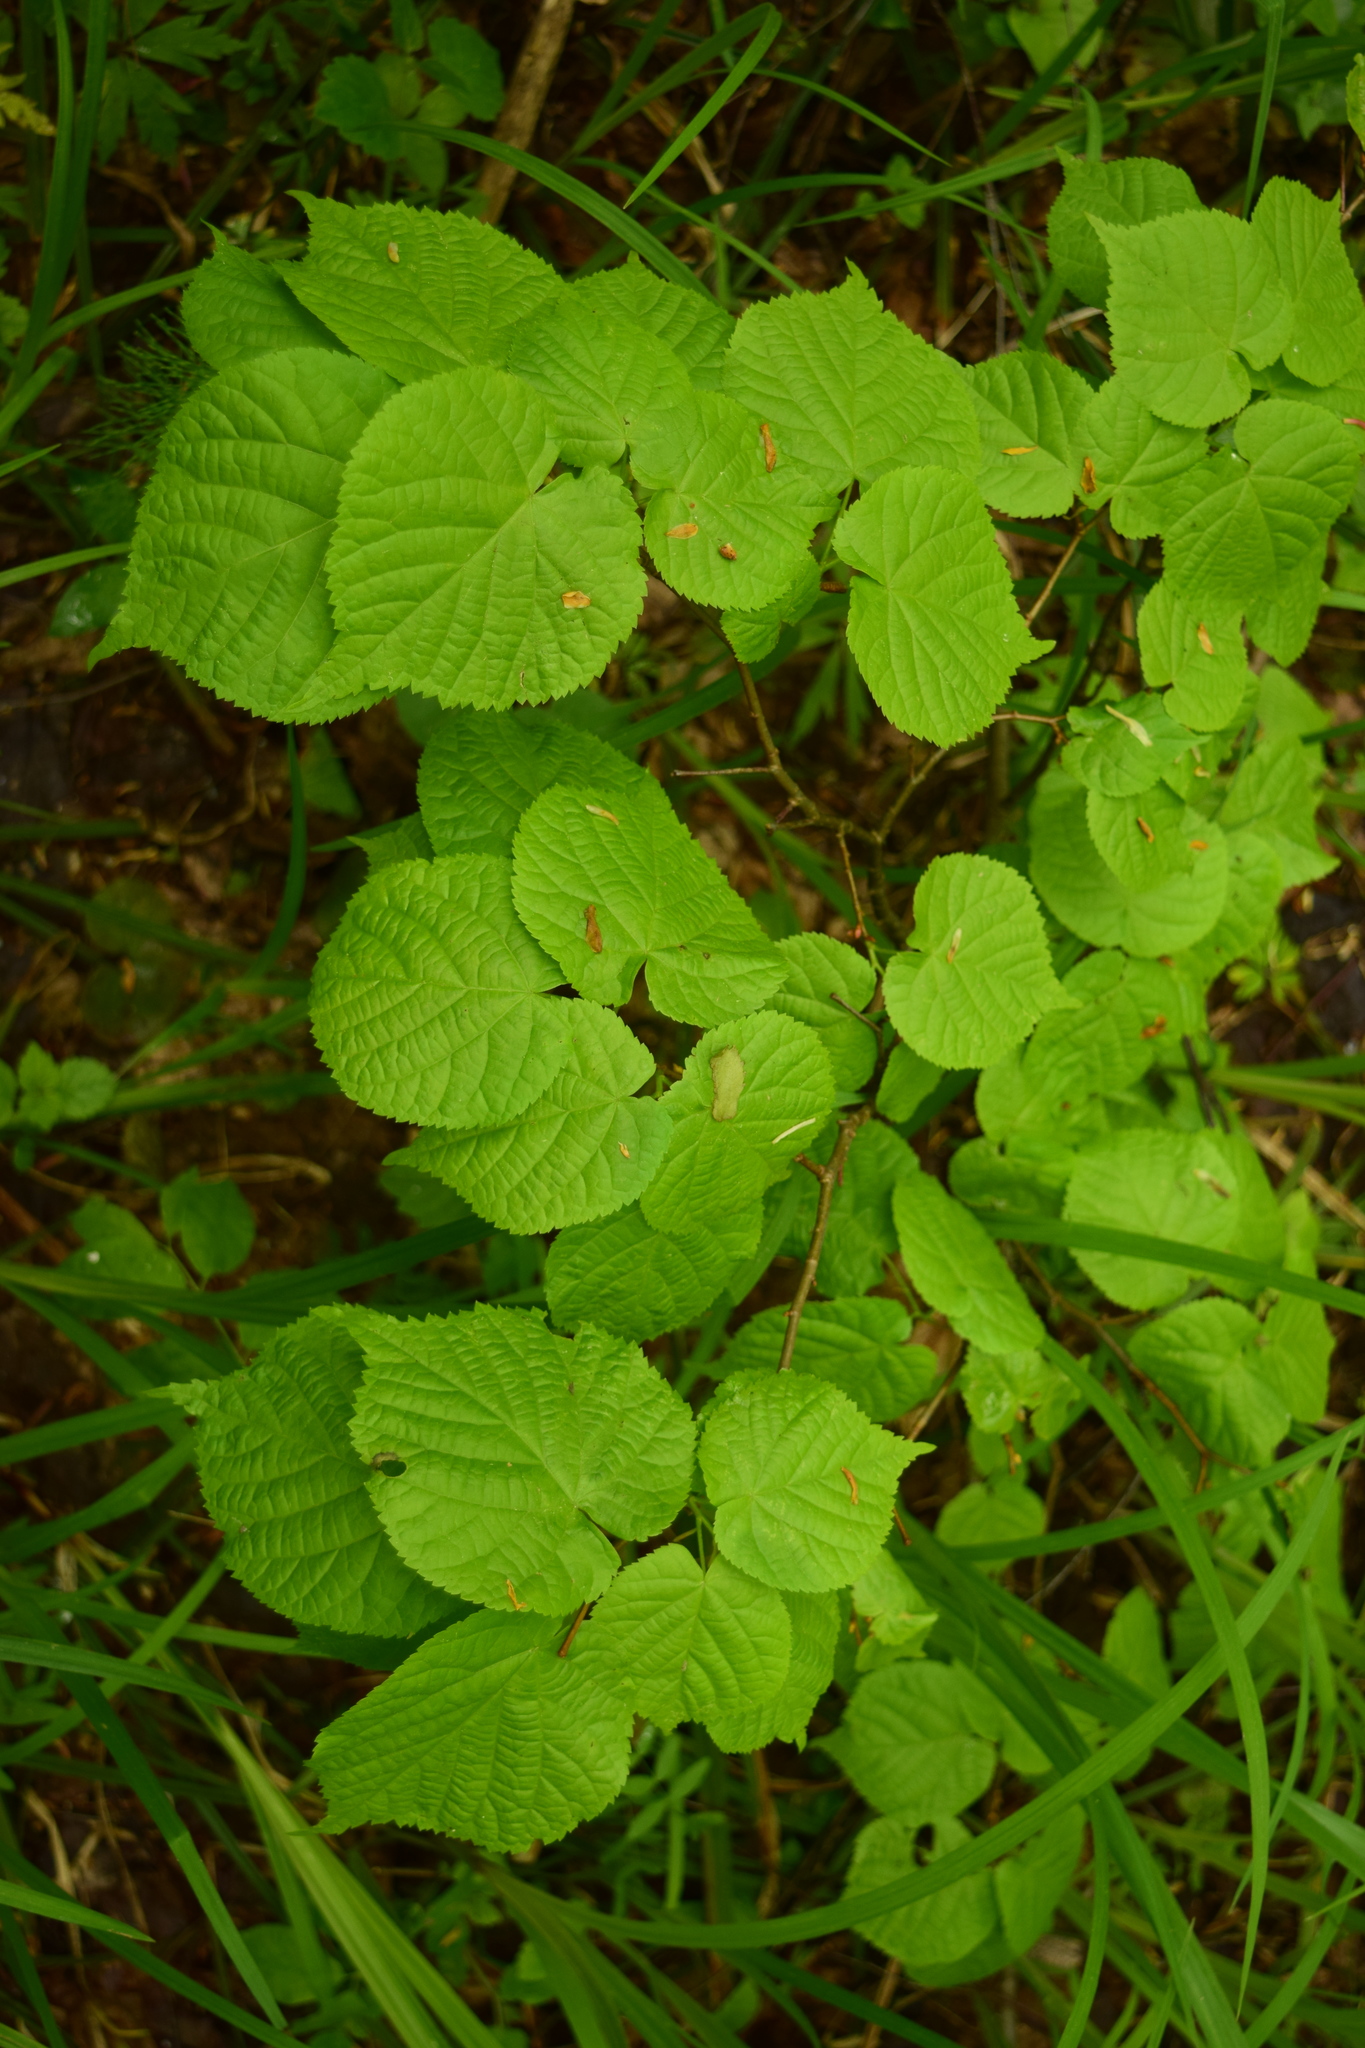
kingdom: Plantae
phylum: Tracheophyta
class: Magnoliopsida
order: Malvales
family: Malvaceae
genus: Tilia
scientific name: Tilia cordata
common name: Small-leaved lime
